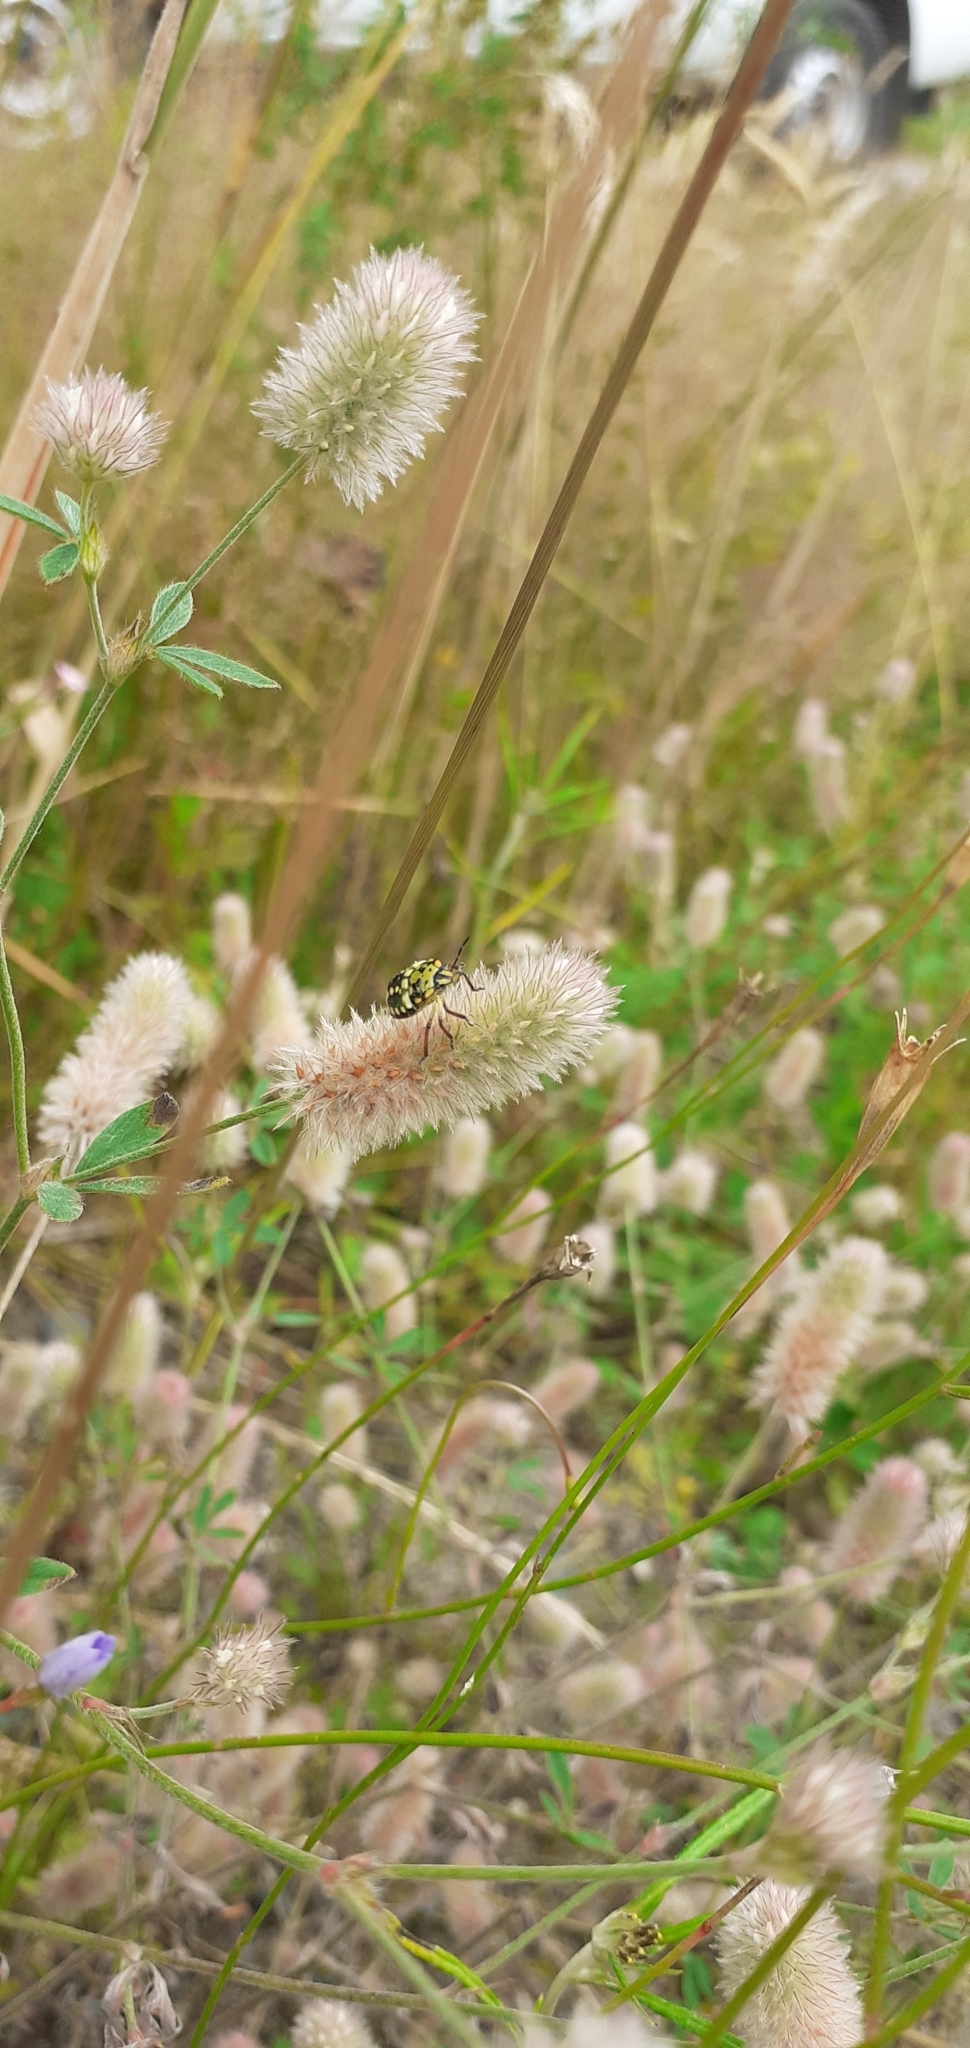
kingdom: Animalia
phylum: Arthropoda
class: Insecta
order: Hemiptera
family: Pentatomidae
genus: Nezara
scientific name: Nezara viridula
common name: Southern green stink bug
